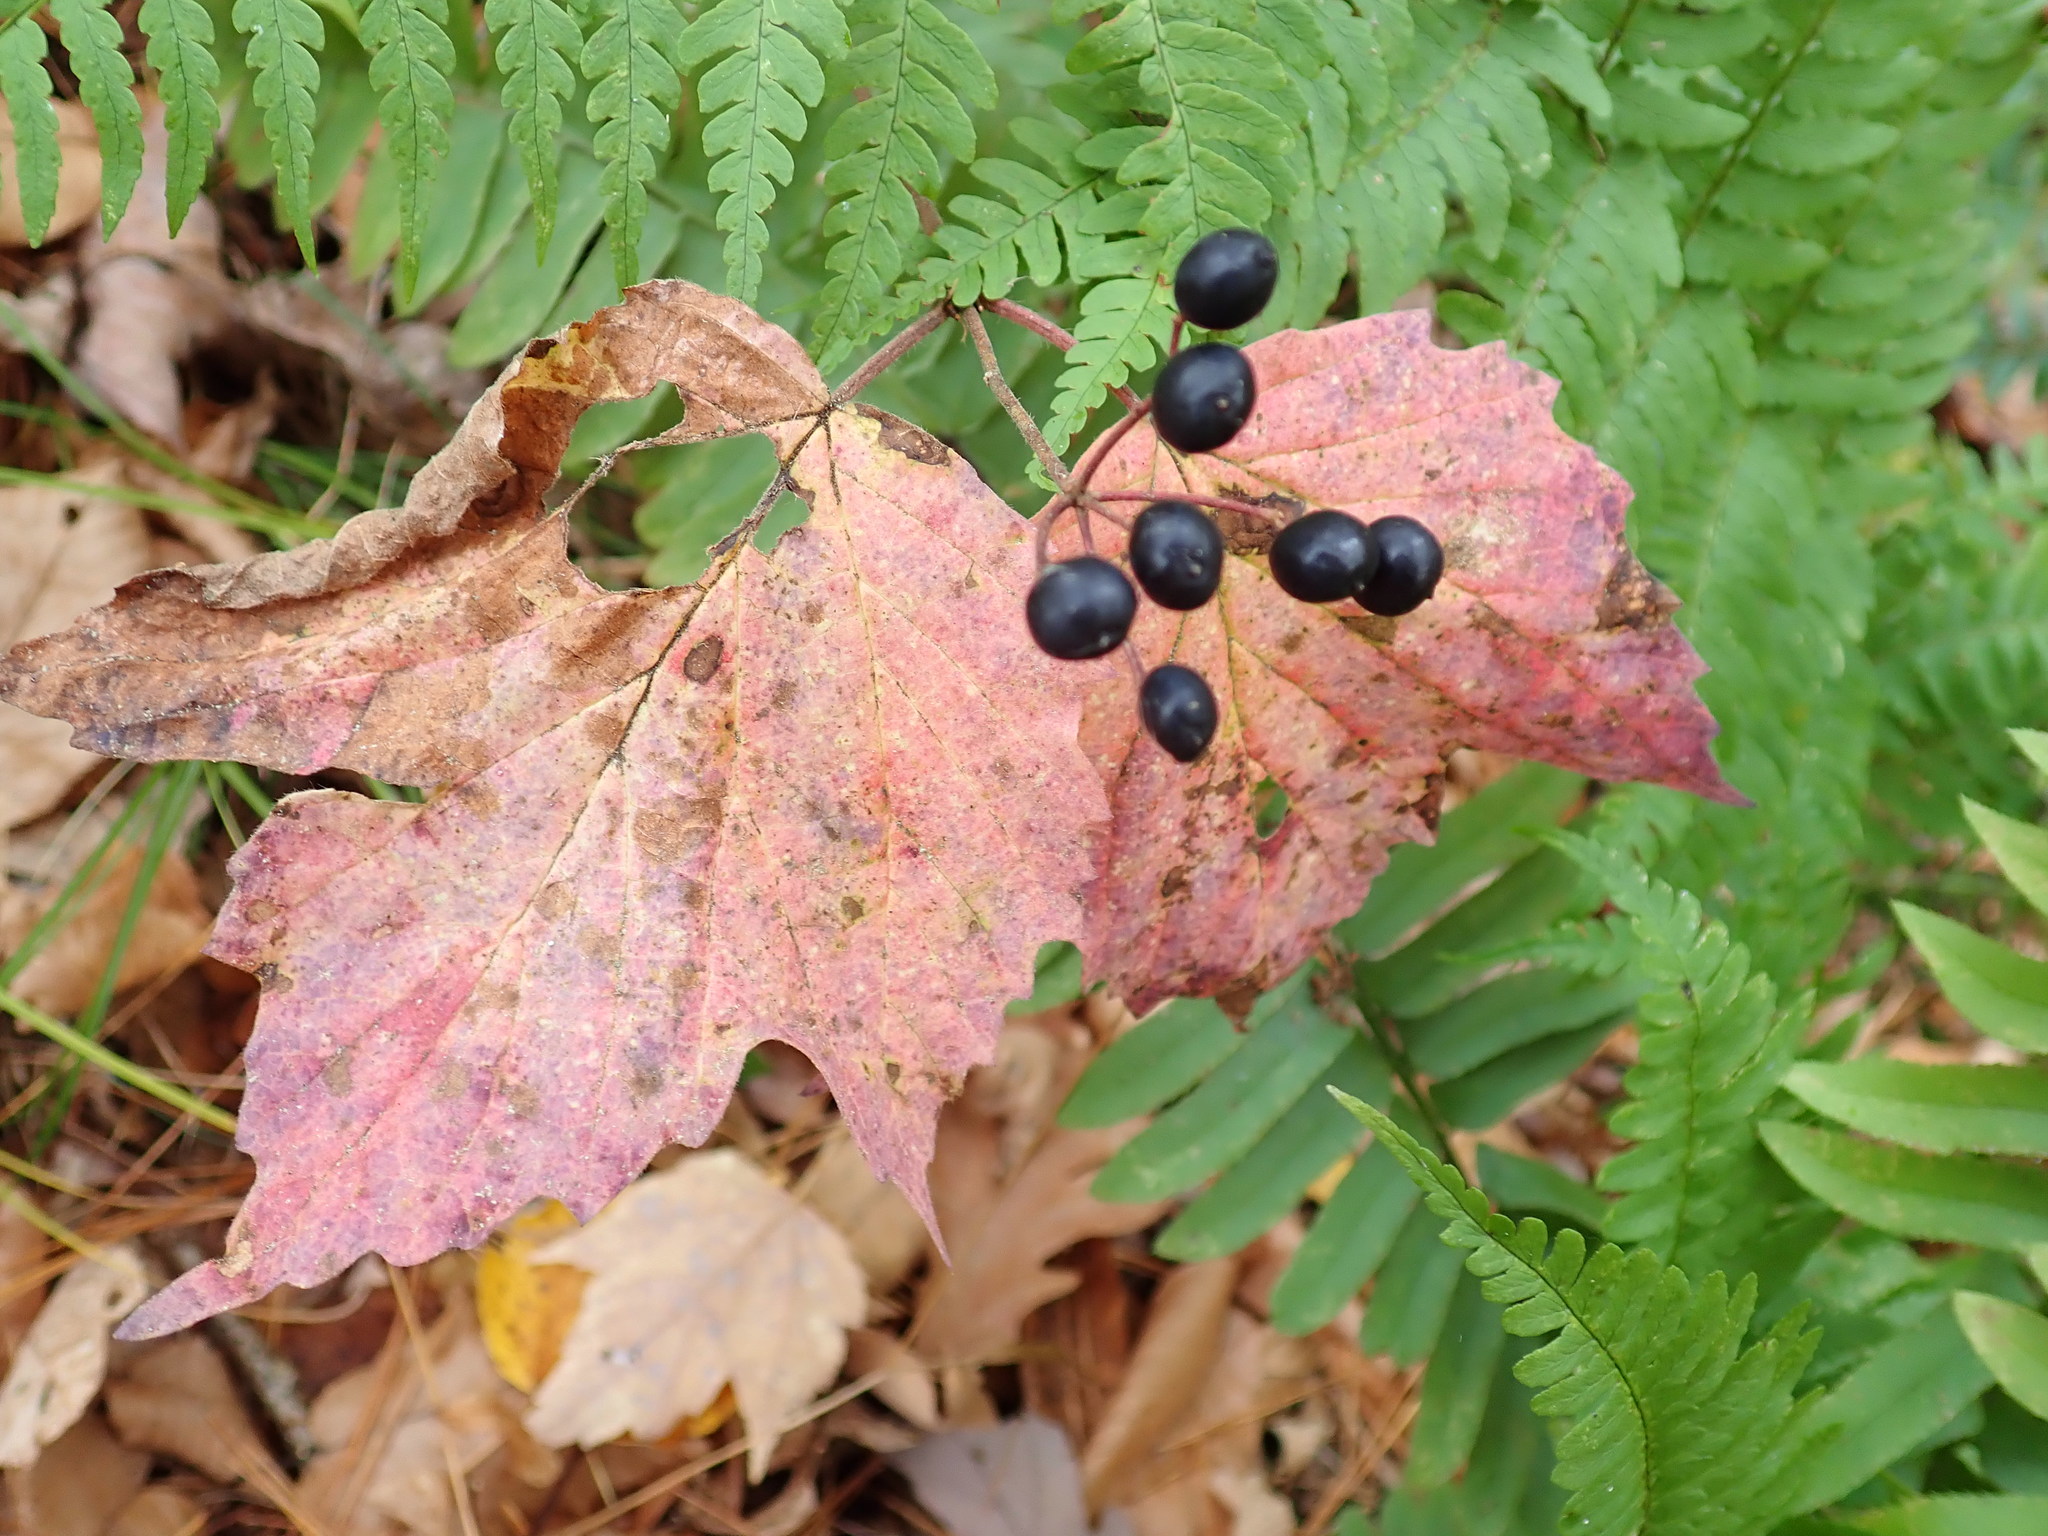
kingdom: Plantae
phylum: Tracheophyta
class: Magnoliopsida
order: Dipsacales
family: Viburnaceae
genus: Viburnum
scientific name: Viburnum acerifolium
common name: Dockmackie
